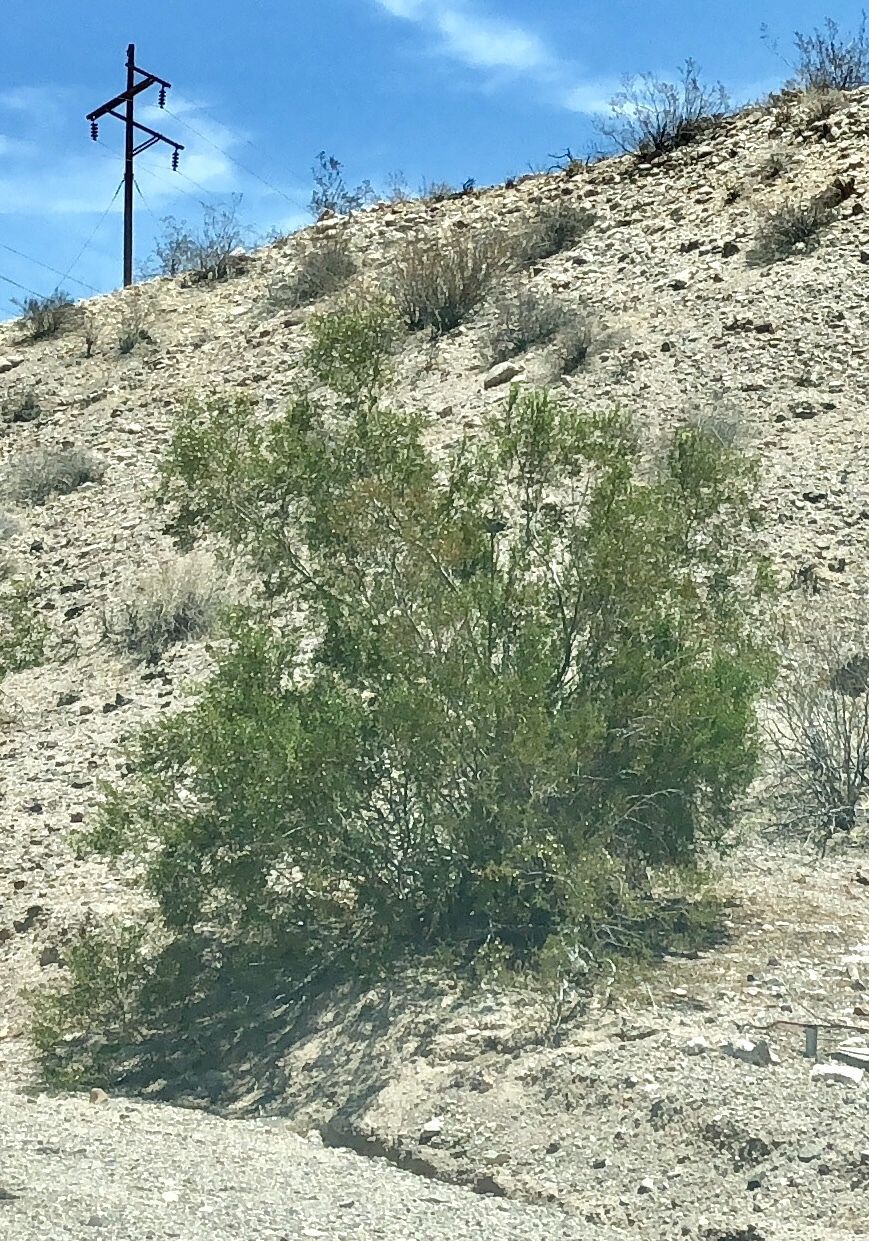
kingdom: Plantae
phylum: Tracheophyta
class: Magnoliopsida
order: Zygophyllales
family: Zygophyllaceae
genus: Larrea
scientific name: Larrea tridentata
